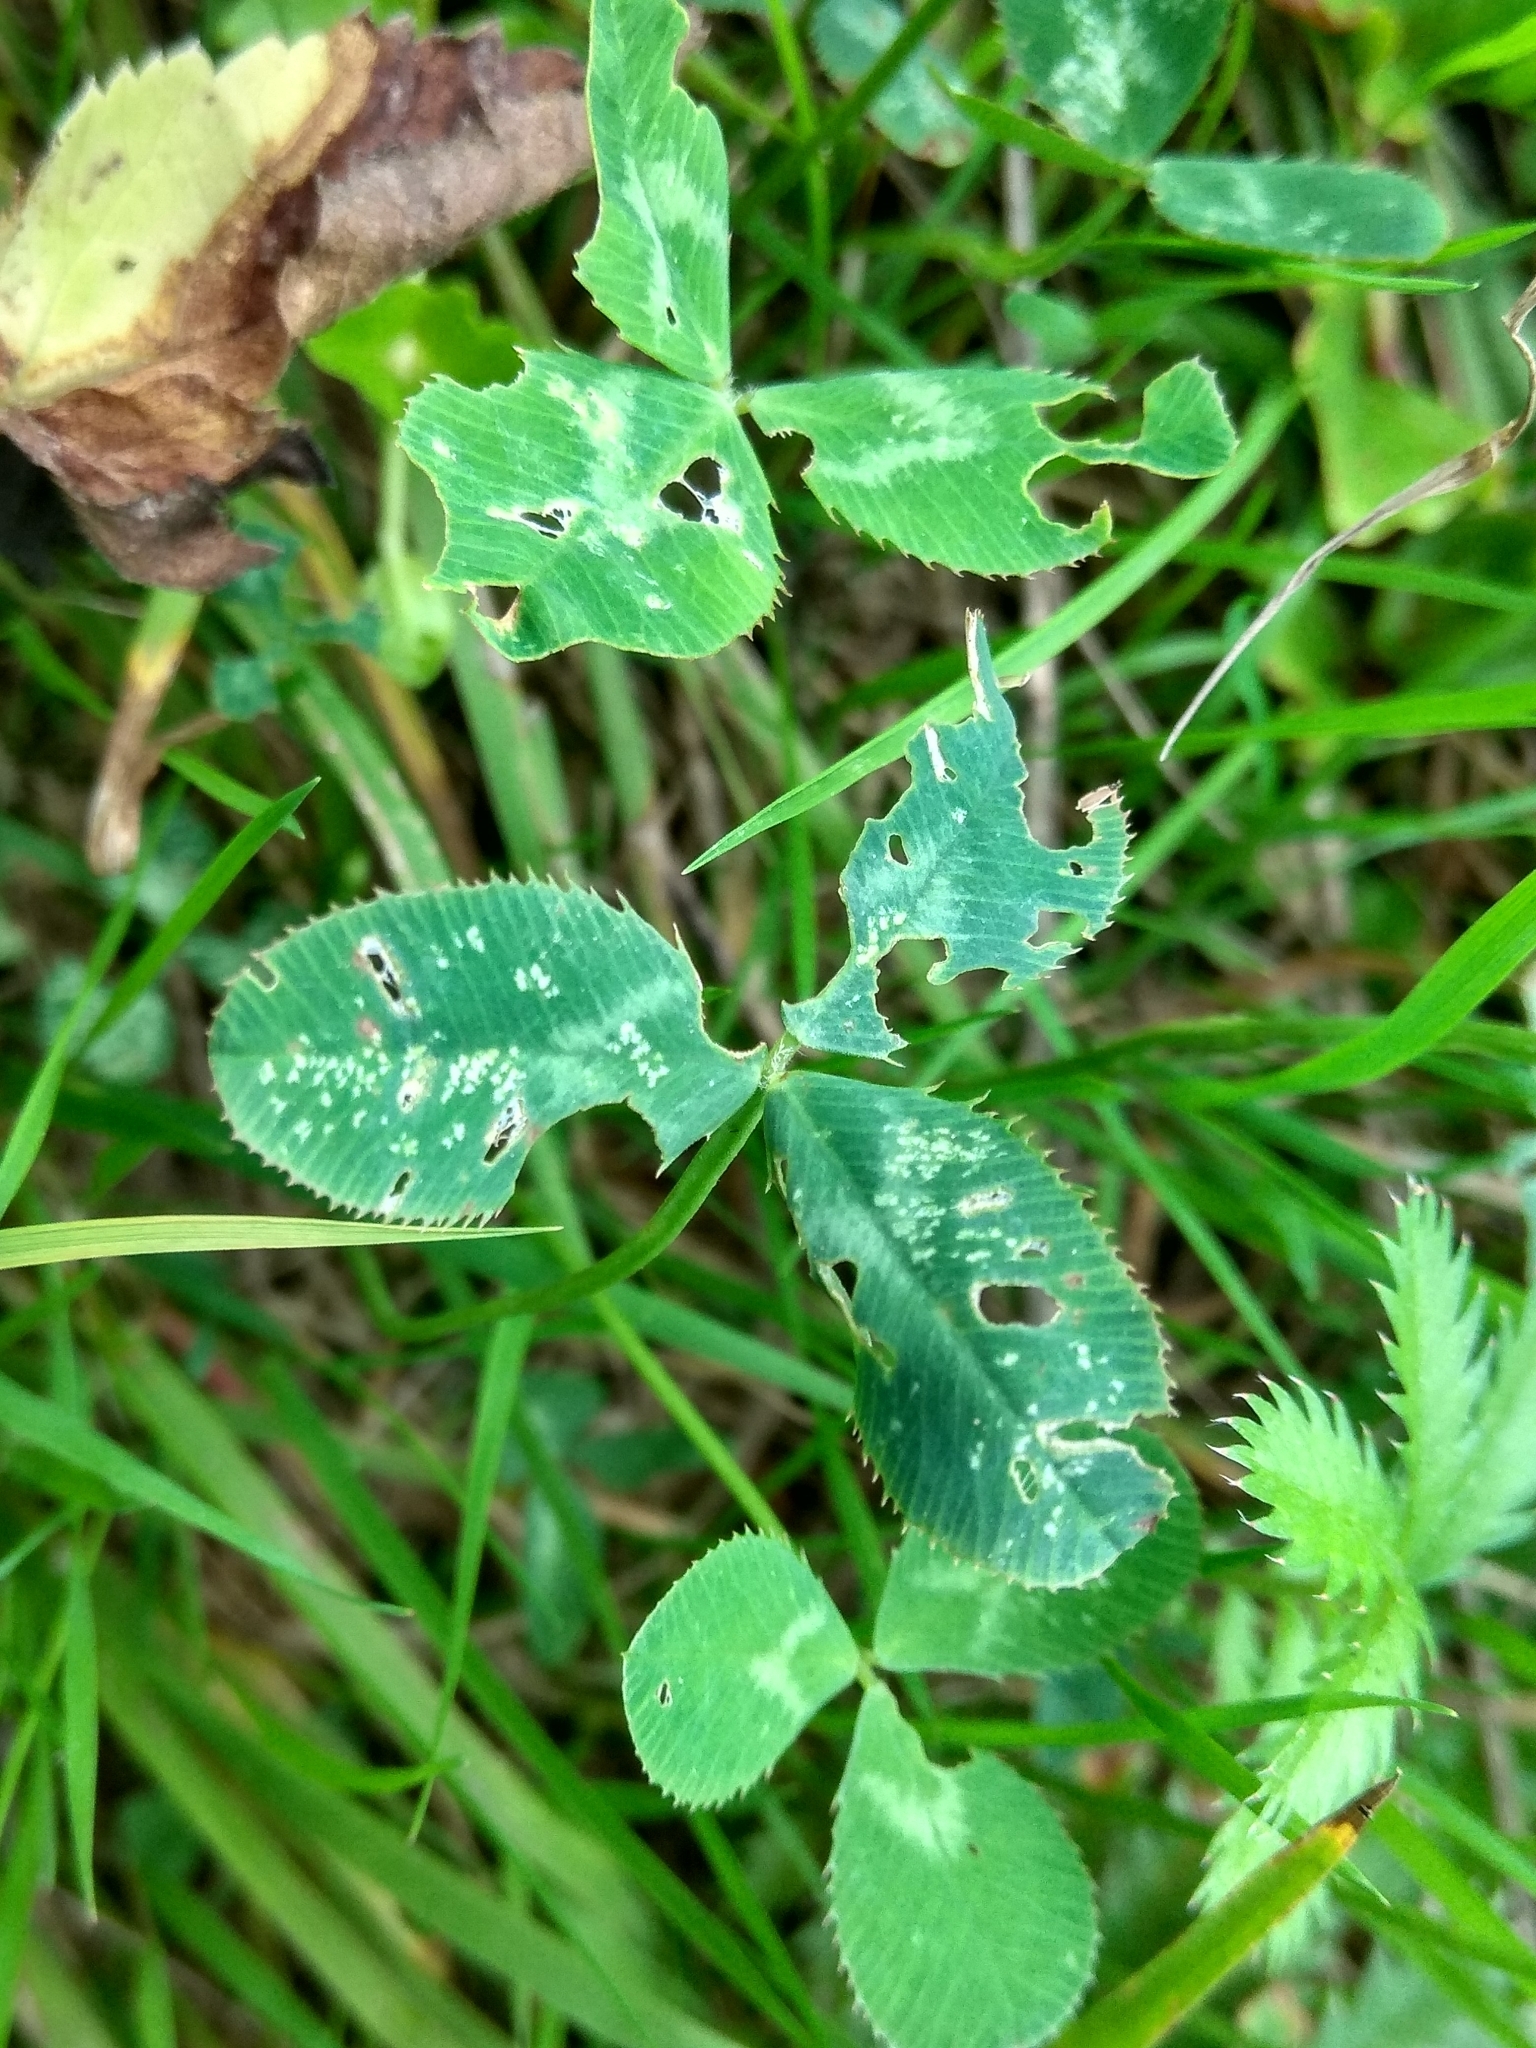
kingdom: Plantae
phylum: Tracheophyta
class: Magnoliopsida
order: Fabales
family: Fabaceae
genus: Trifolium
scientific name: Trifolium repens
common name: White clover
